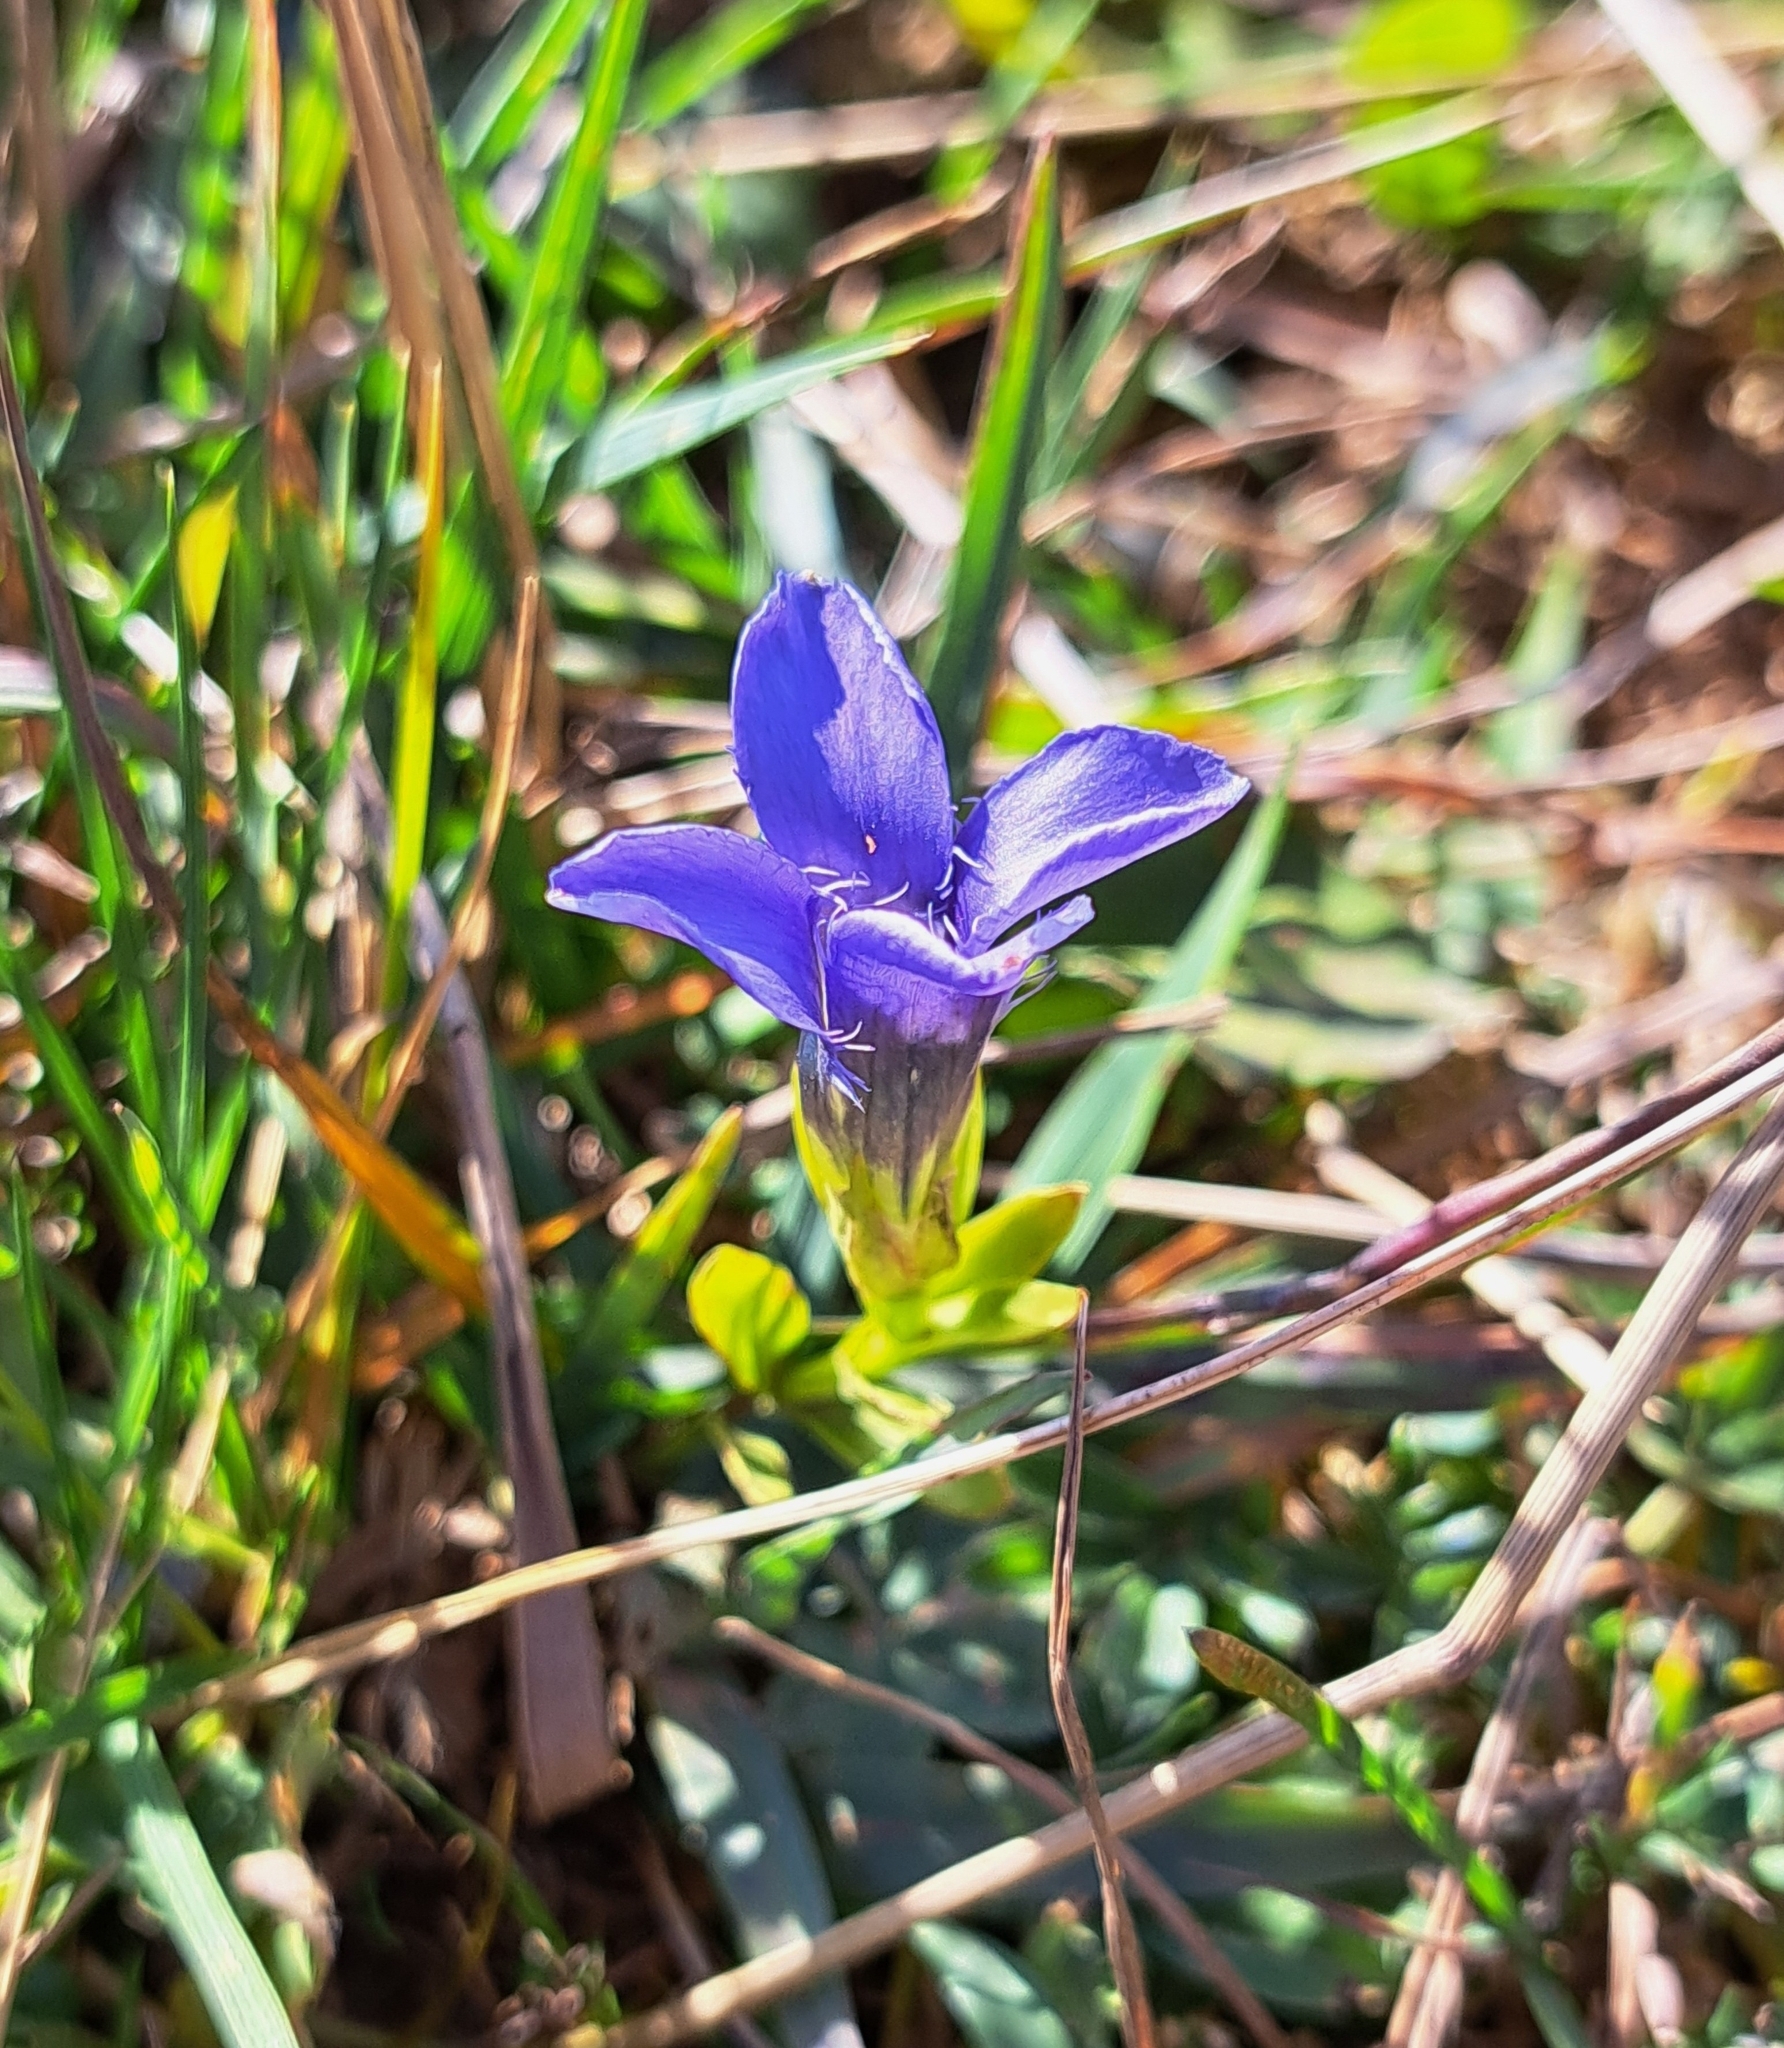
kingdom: Plantae
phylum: Tracheophyta
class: Magnoliopsida
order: Gentianales
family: Gentianaceae
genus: Gentianopsis
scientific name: Gentianopsis ciliata
